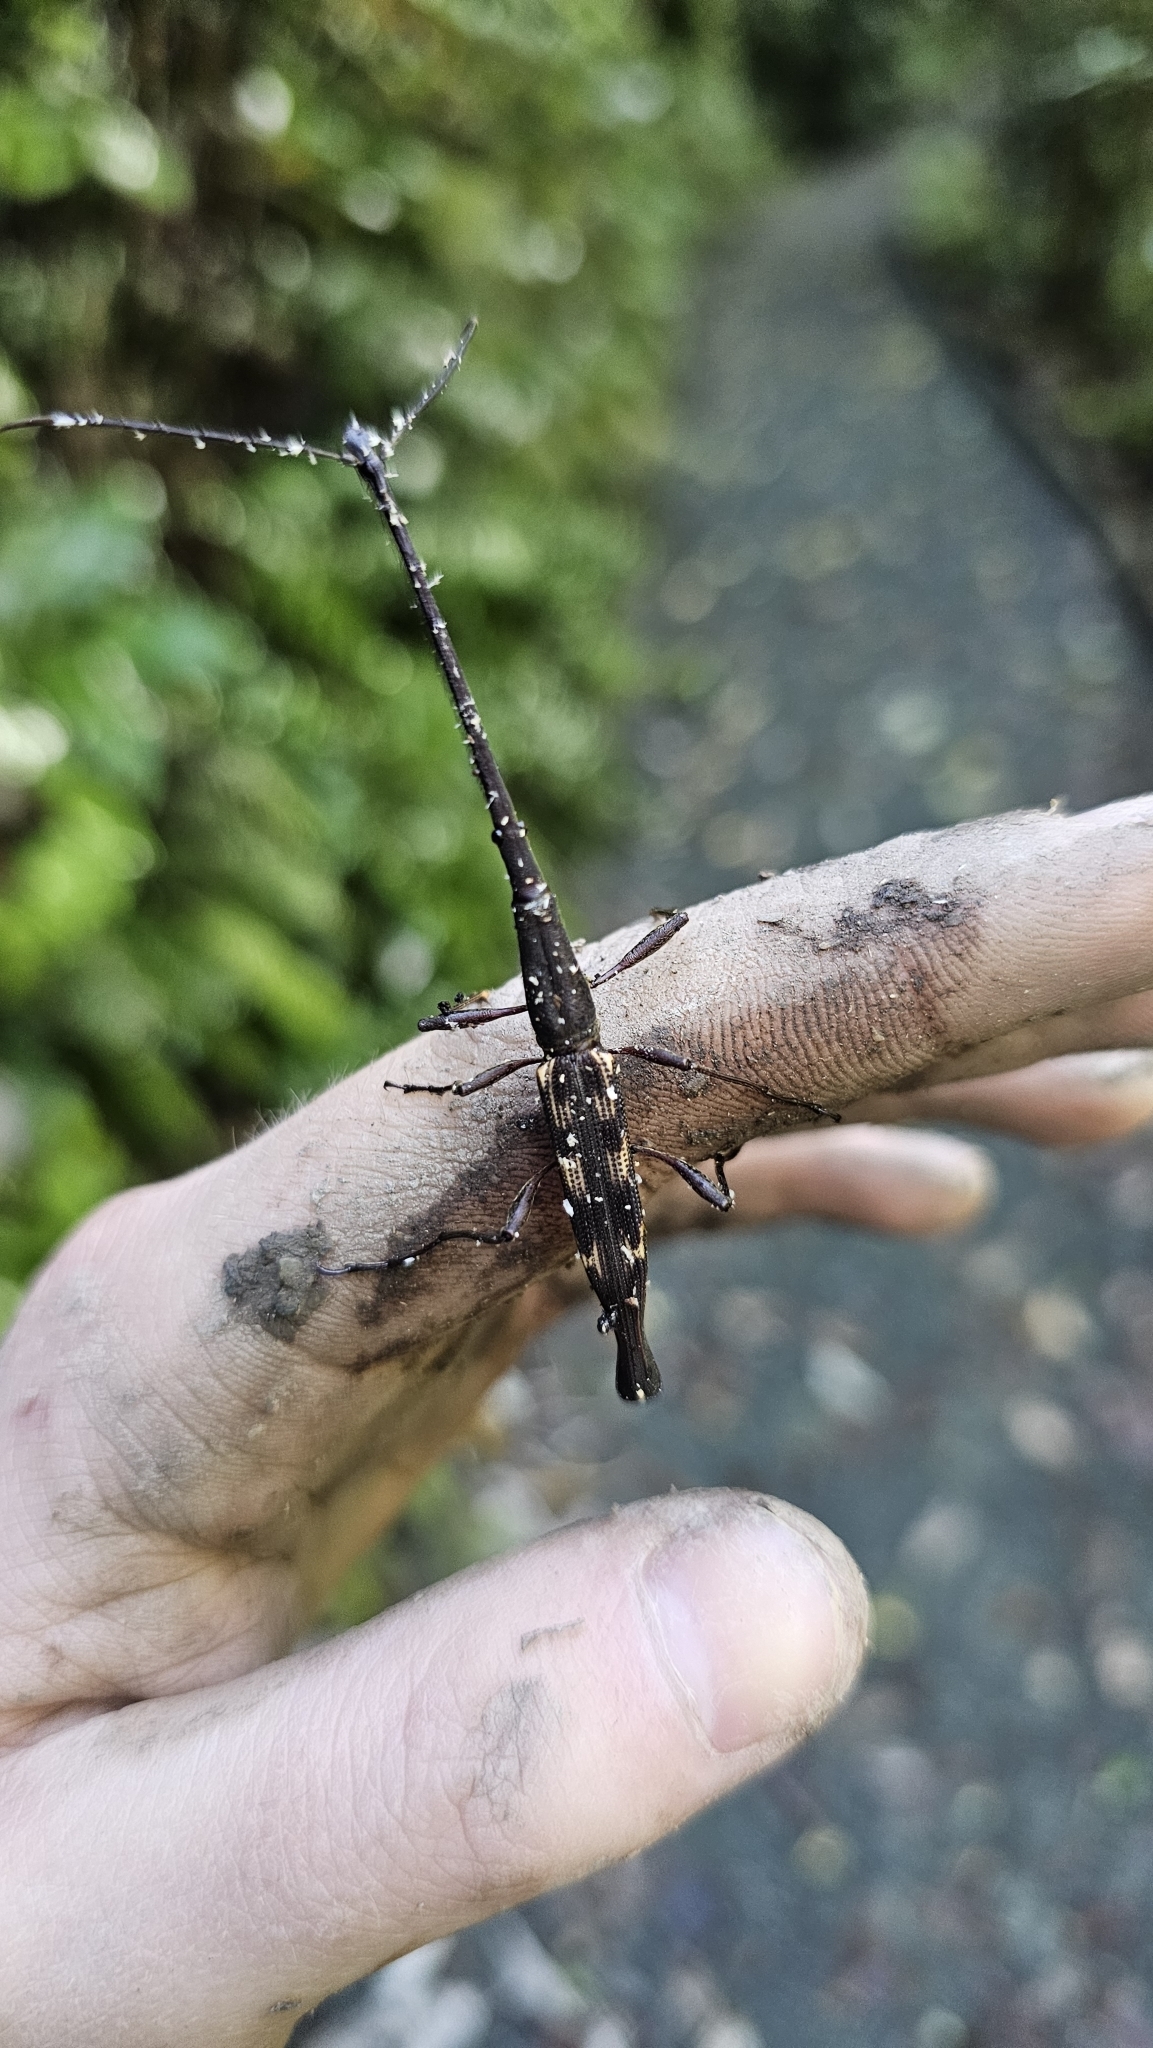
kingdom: Animalia
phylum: Arthropoda
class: Insecta
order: Coleoptera
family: Brentidae
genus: Lasiorhynchus
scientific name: Lasiorhynchus barbicornis
